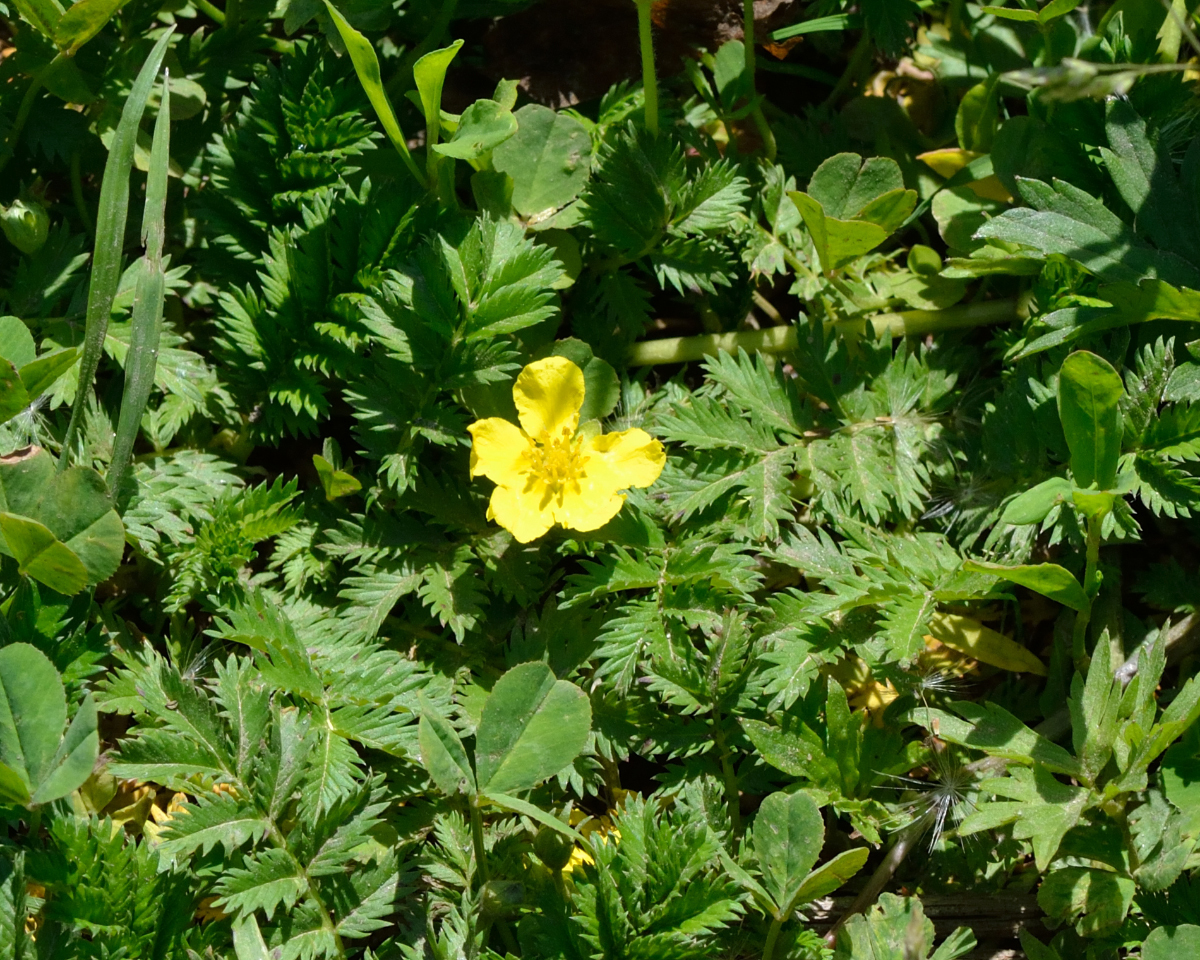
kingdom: Plantae
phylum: Tracheophyta
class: Magnoliopsida
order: Rosales
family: Rosaceae
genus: Argentina
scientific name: Argentina anserina
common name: Common silverweed
